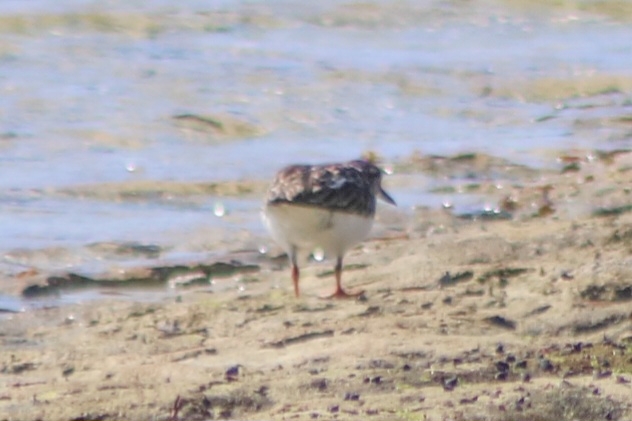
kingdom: Animalia
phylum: Chordata
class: Aves
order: Charadriiformes
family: Scolopacidae
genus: Arenaria
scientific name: Arenaria interpres
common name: Ruddy turnstone
